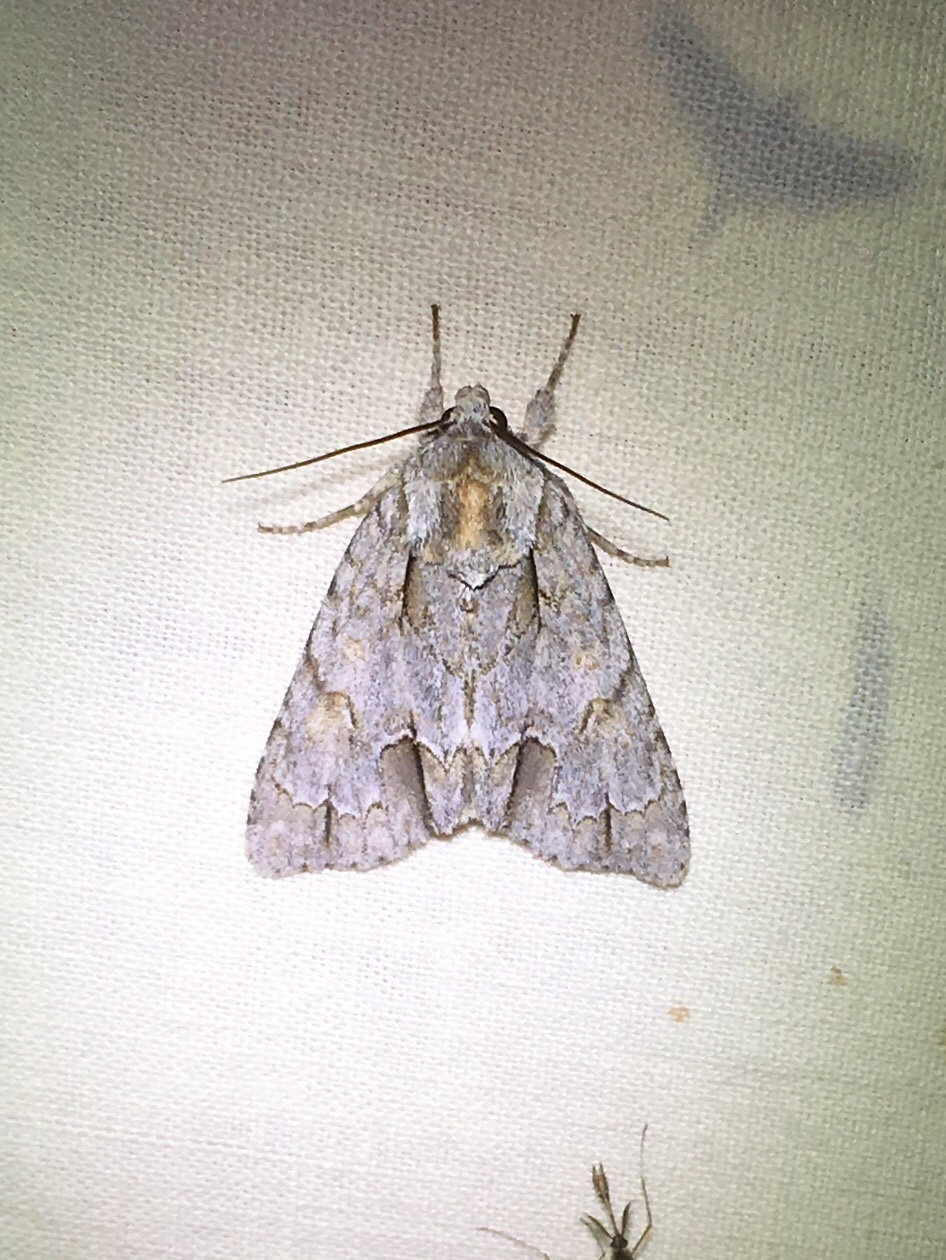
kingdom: Animalia
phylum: Arthropoda
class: Insecta
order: Lepidoptera
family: Noctuidae
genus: Acronicta
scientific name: Acronicta morula
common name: Ochre dagger
